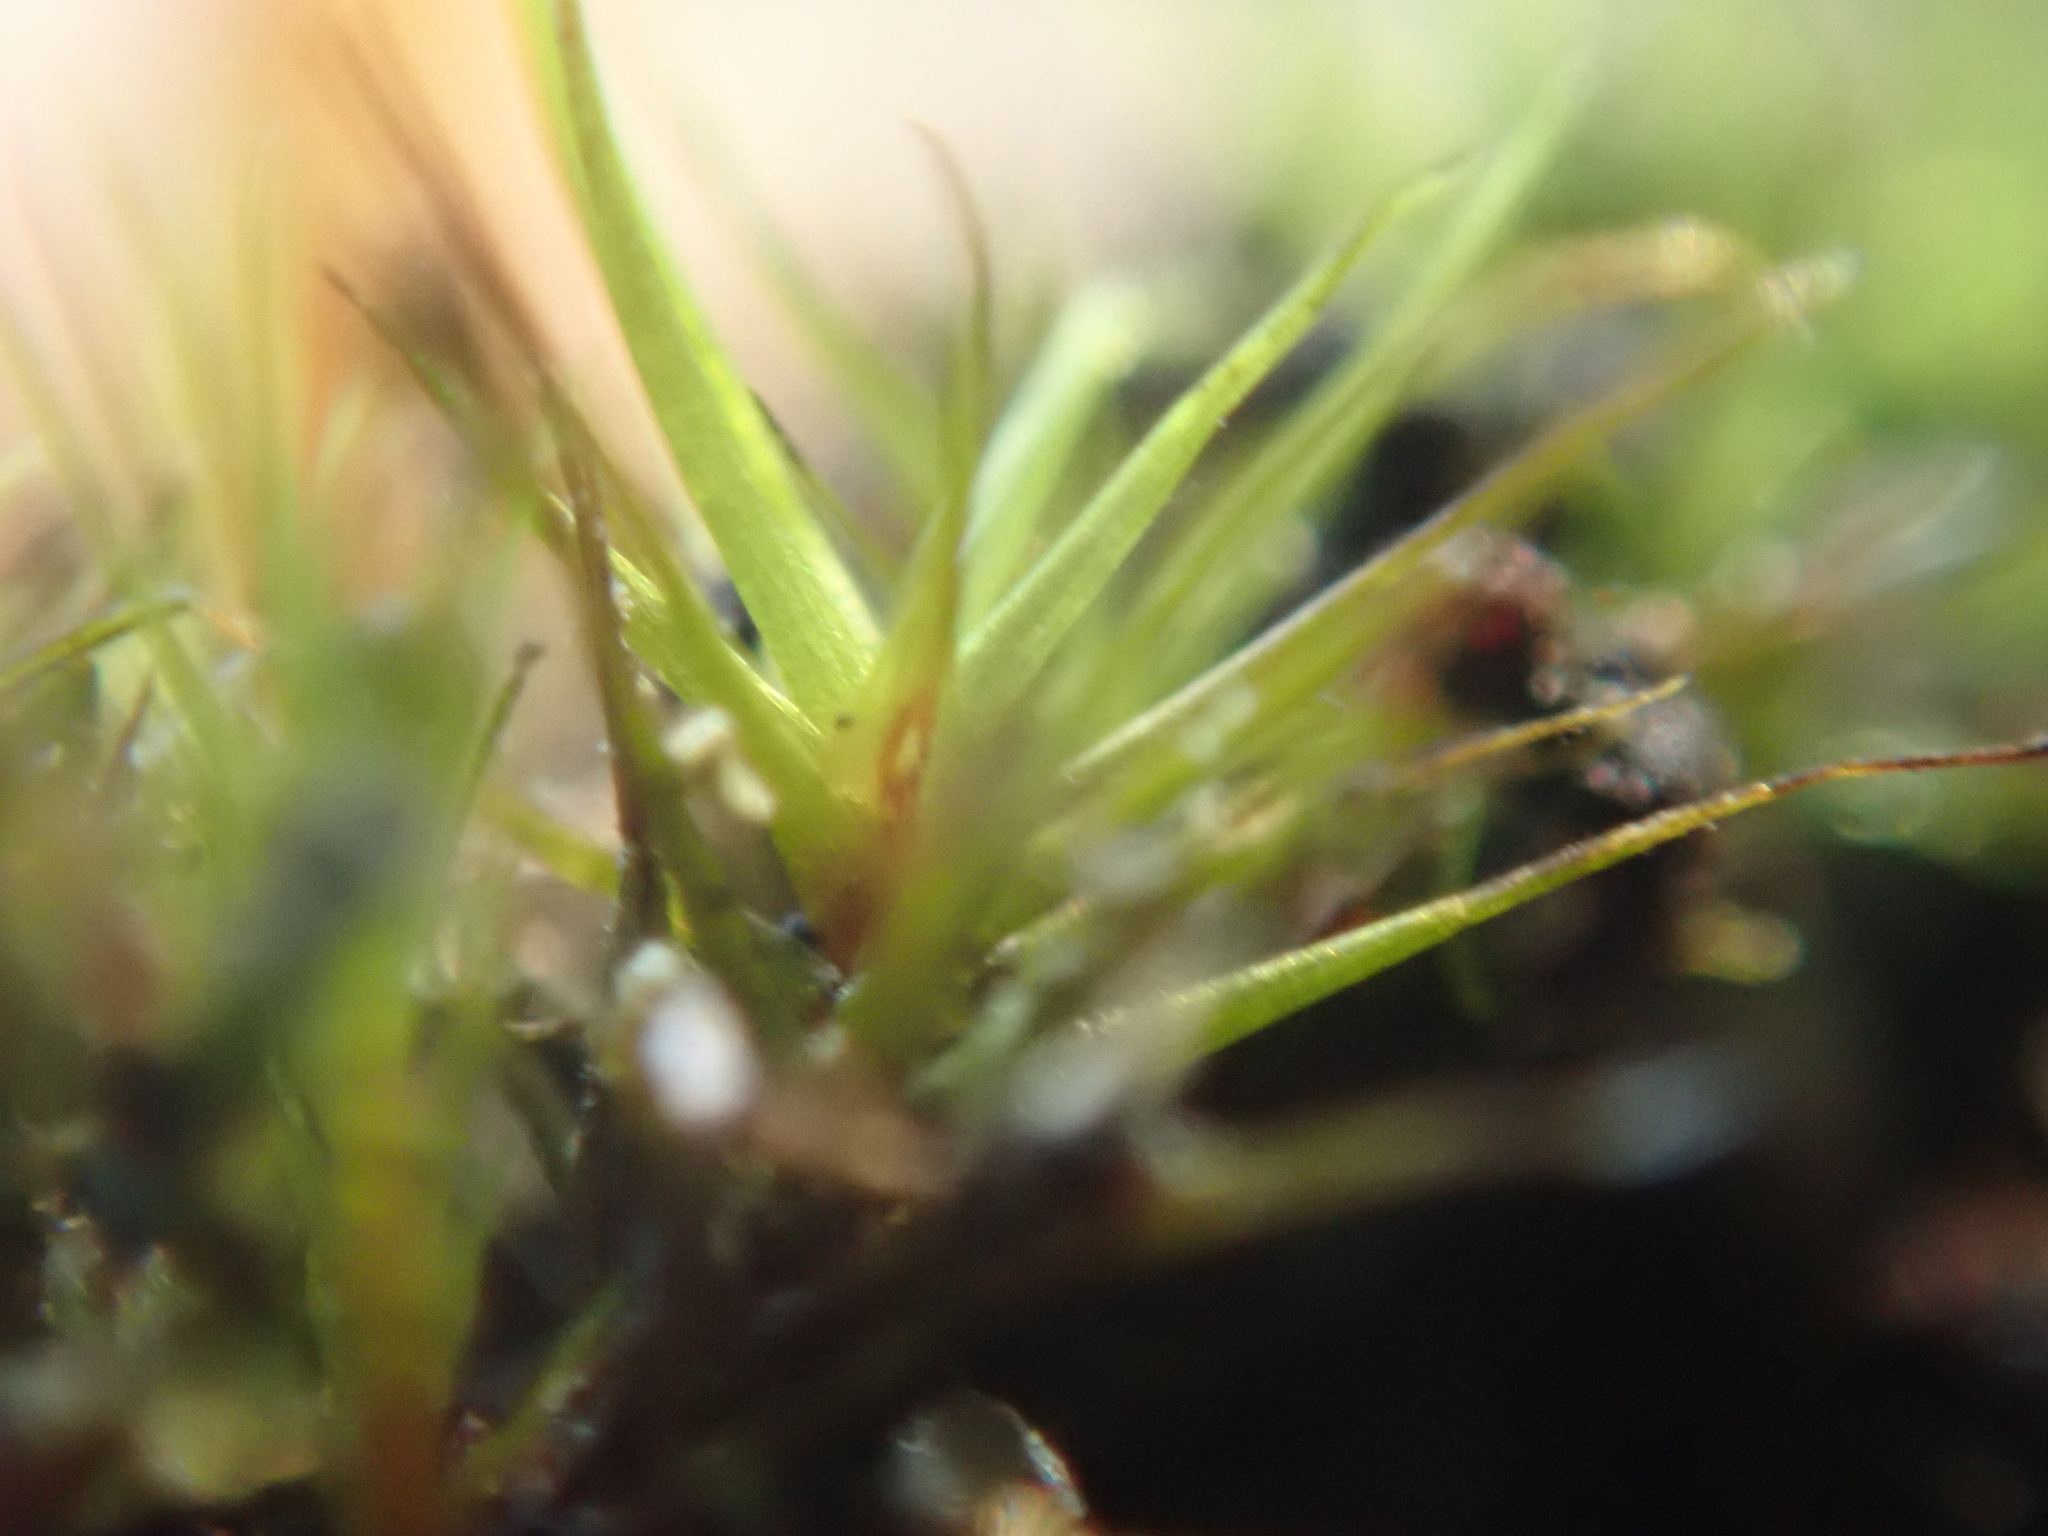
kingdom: Plantae
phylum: Bryophyta
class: Bryopsida
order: Dicranales
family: Leucobryaceae
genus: Campylopus
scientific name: Campylopus atrovirens
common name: Bristly swan-neck moss
